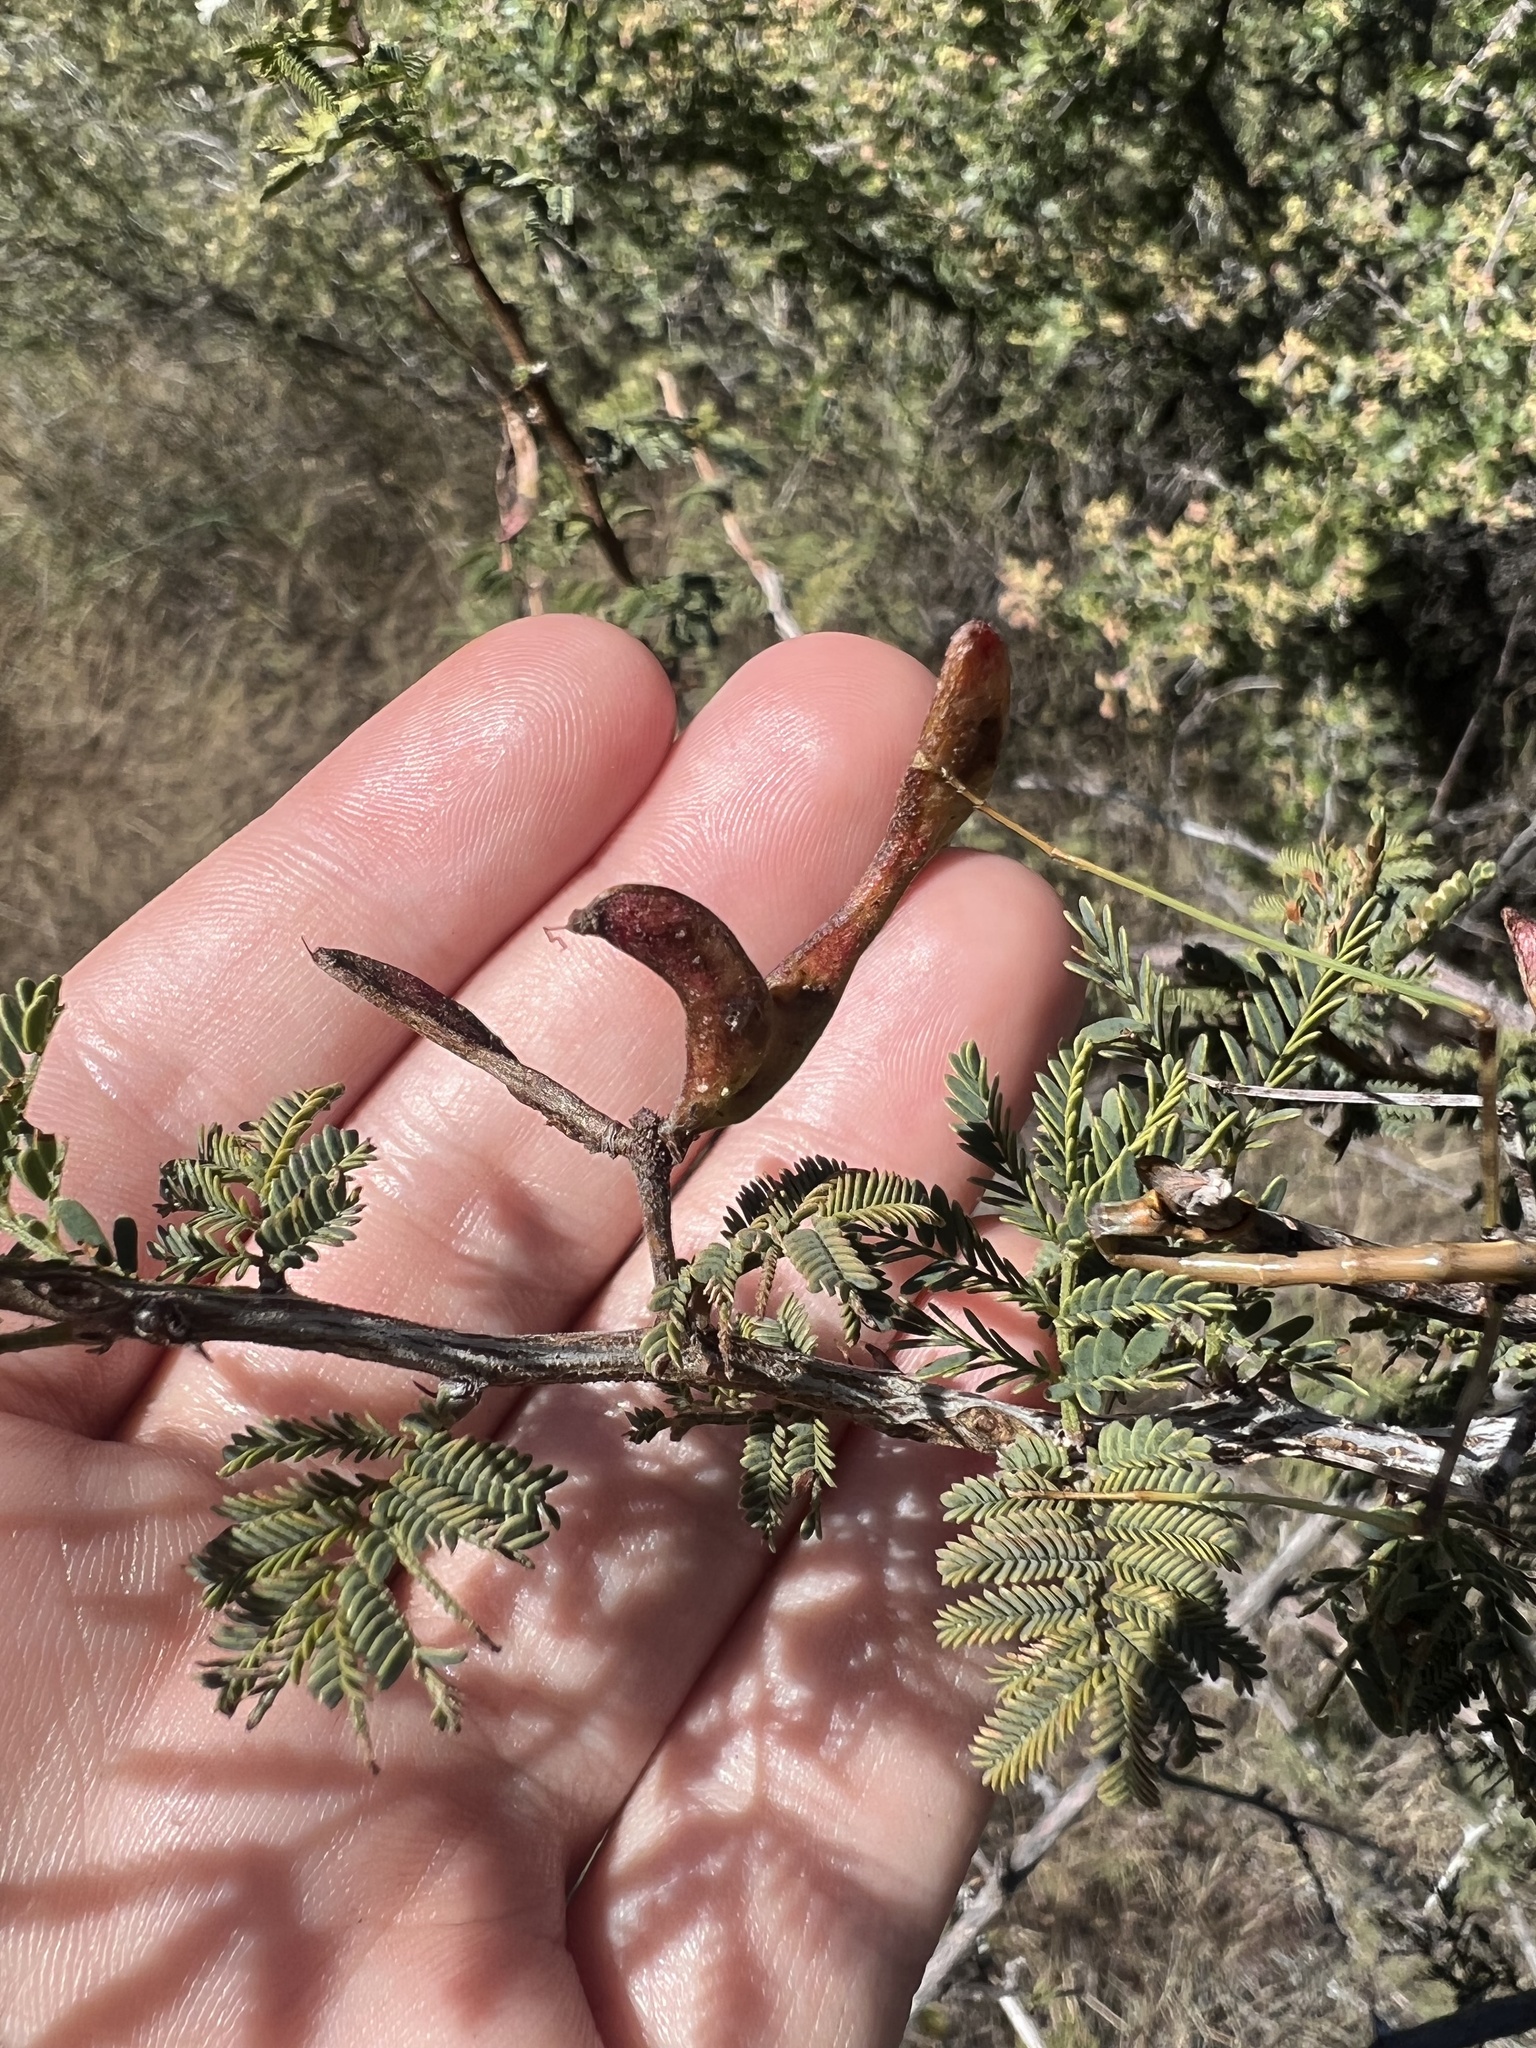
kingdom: Plantae
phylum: Tracheophyta
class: Magnoliopsida
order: Fabales
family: Fabaceae
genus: Mimosa
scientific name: Mimosa biuncifera
